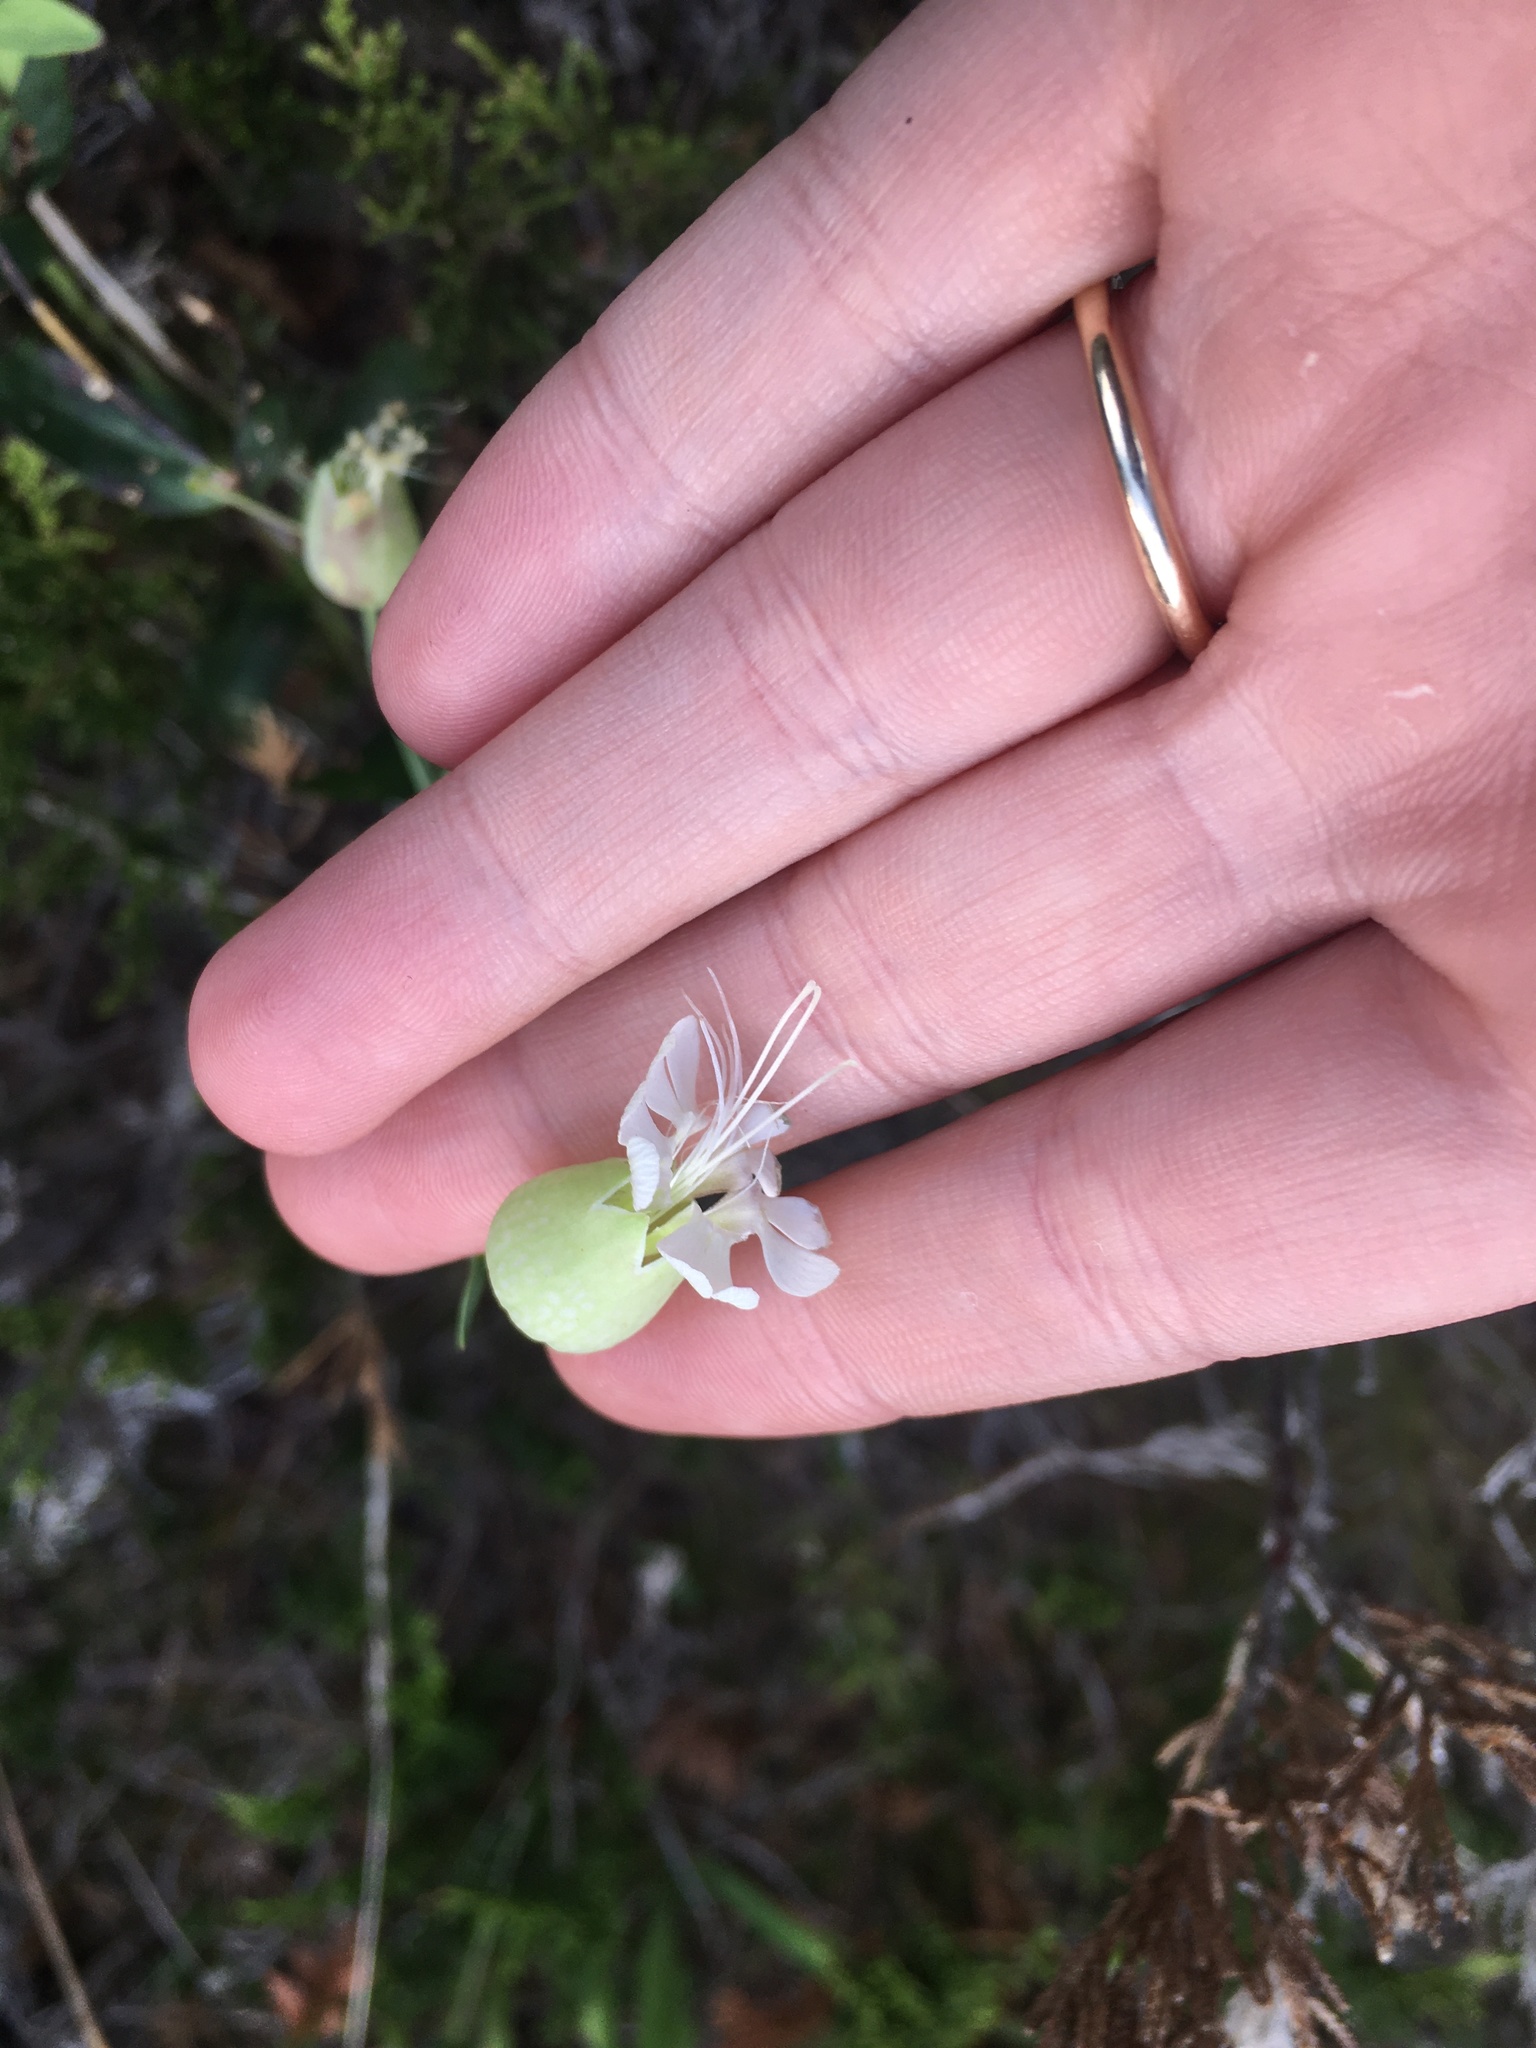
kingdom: Plantae
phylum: Tracheophyta
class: Magnoliopsida
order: Caryophyllales
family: Caryophyllaceae
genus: Silene
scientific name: Silene vulgaris
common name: Bladder campion
